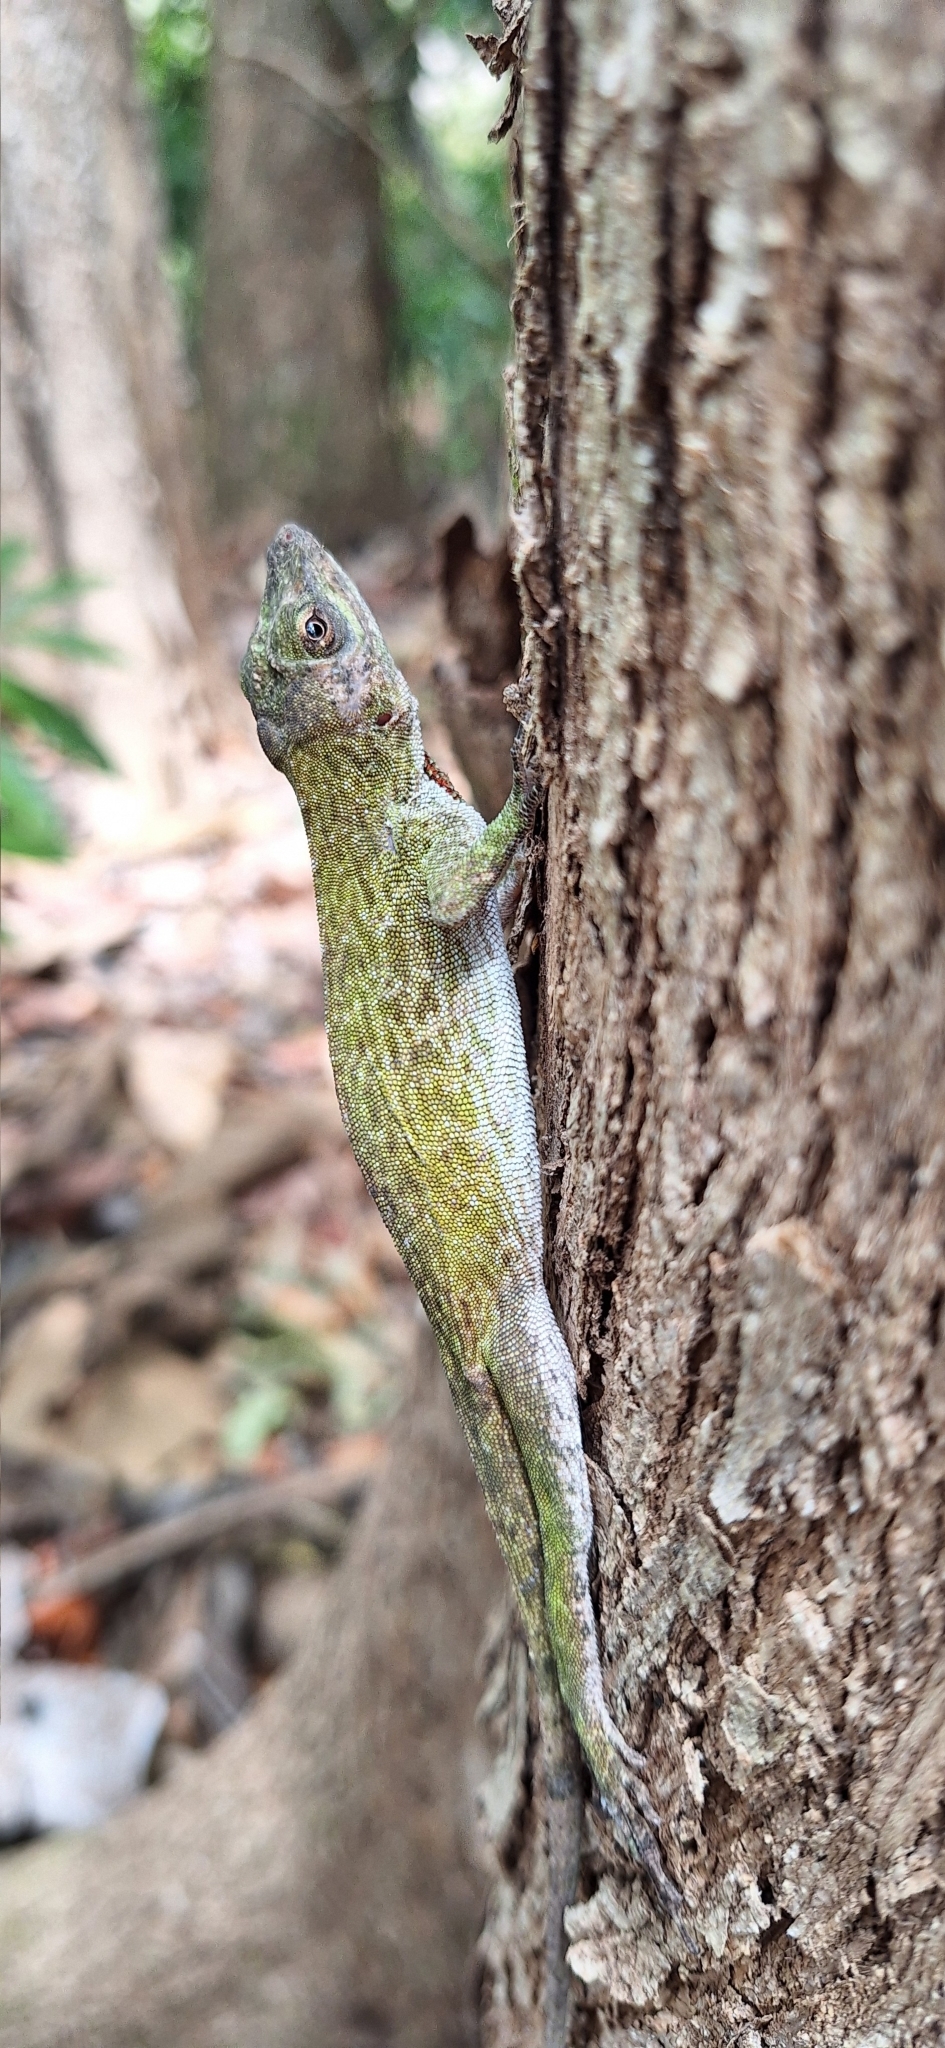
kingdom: Animalia
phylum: Chordata
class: Squamata
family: Dactyloidae
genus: Anolis
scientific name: Anolis biporcatus
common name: Giant green anole
